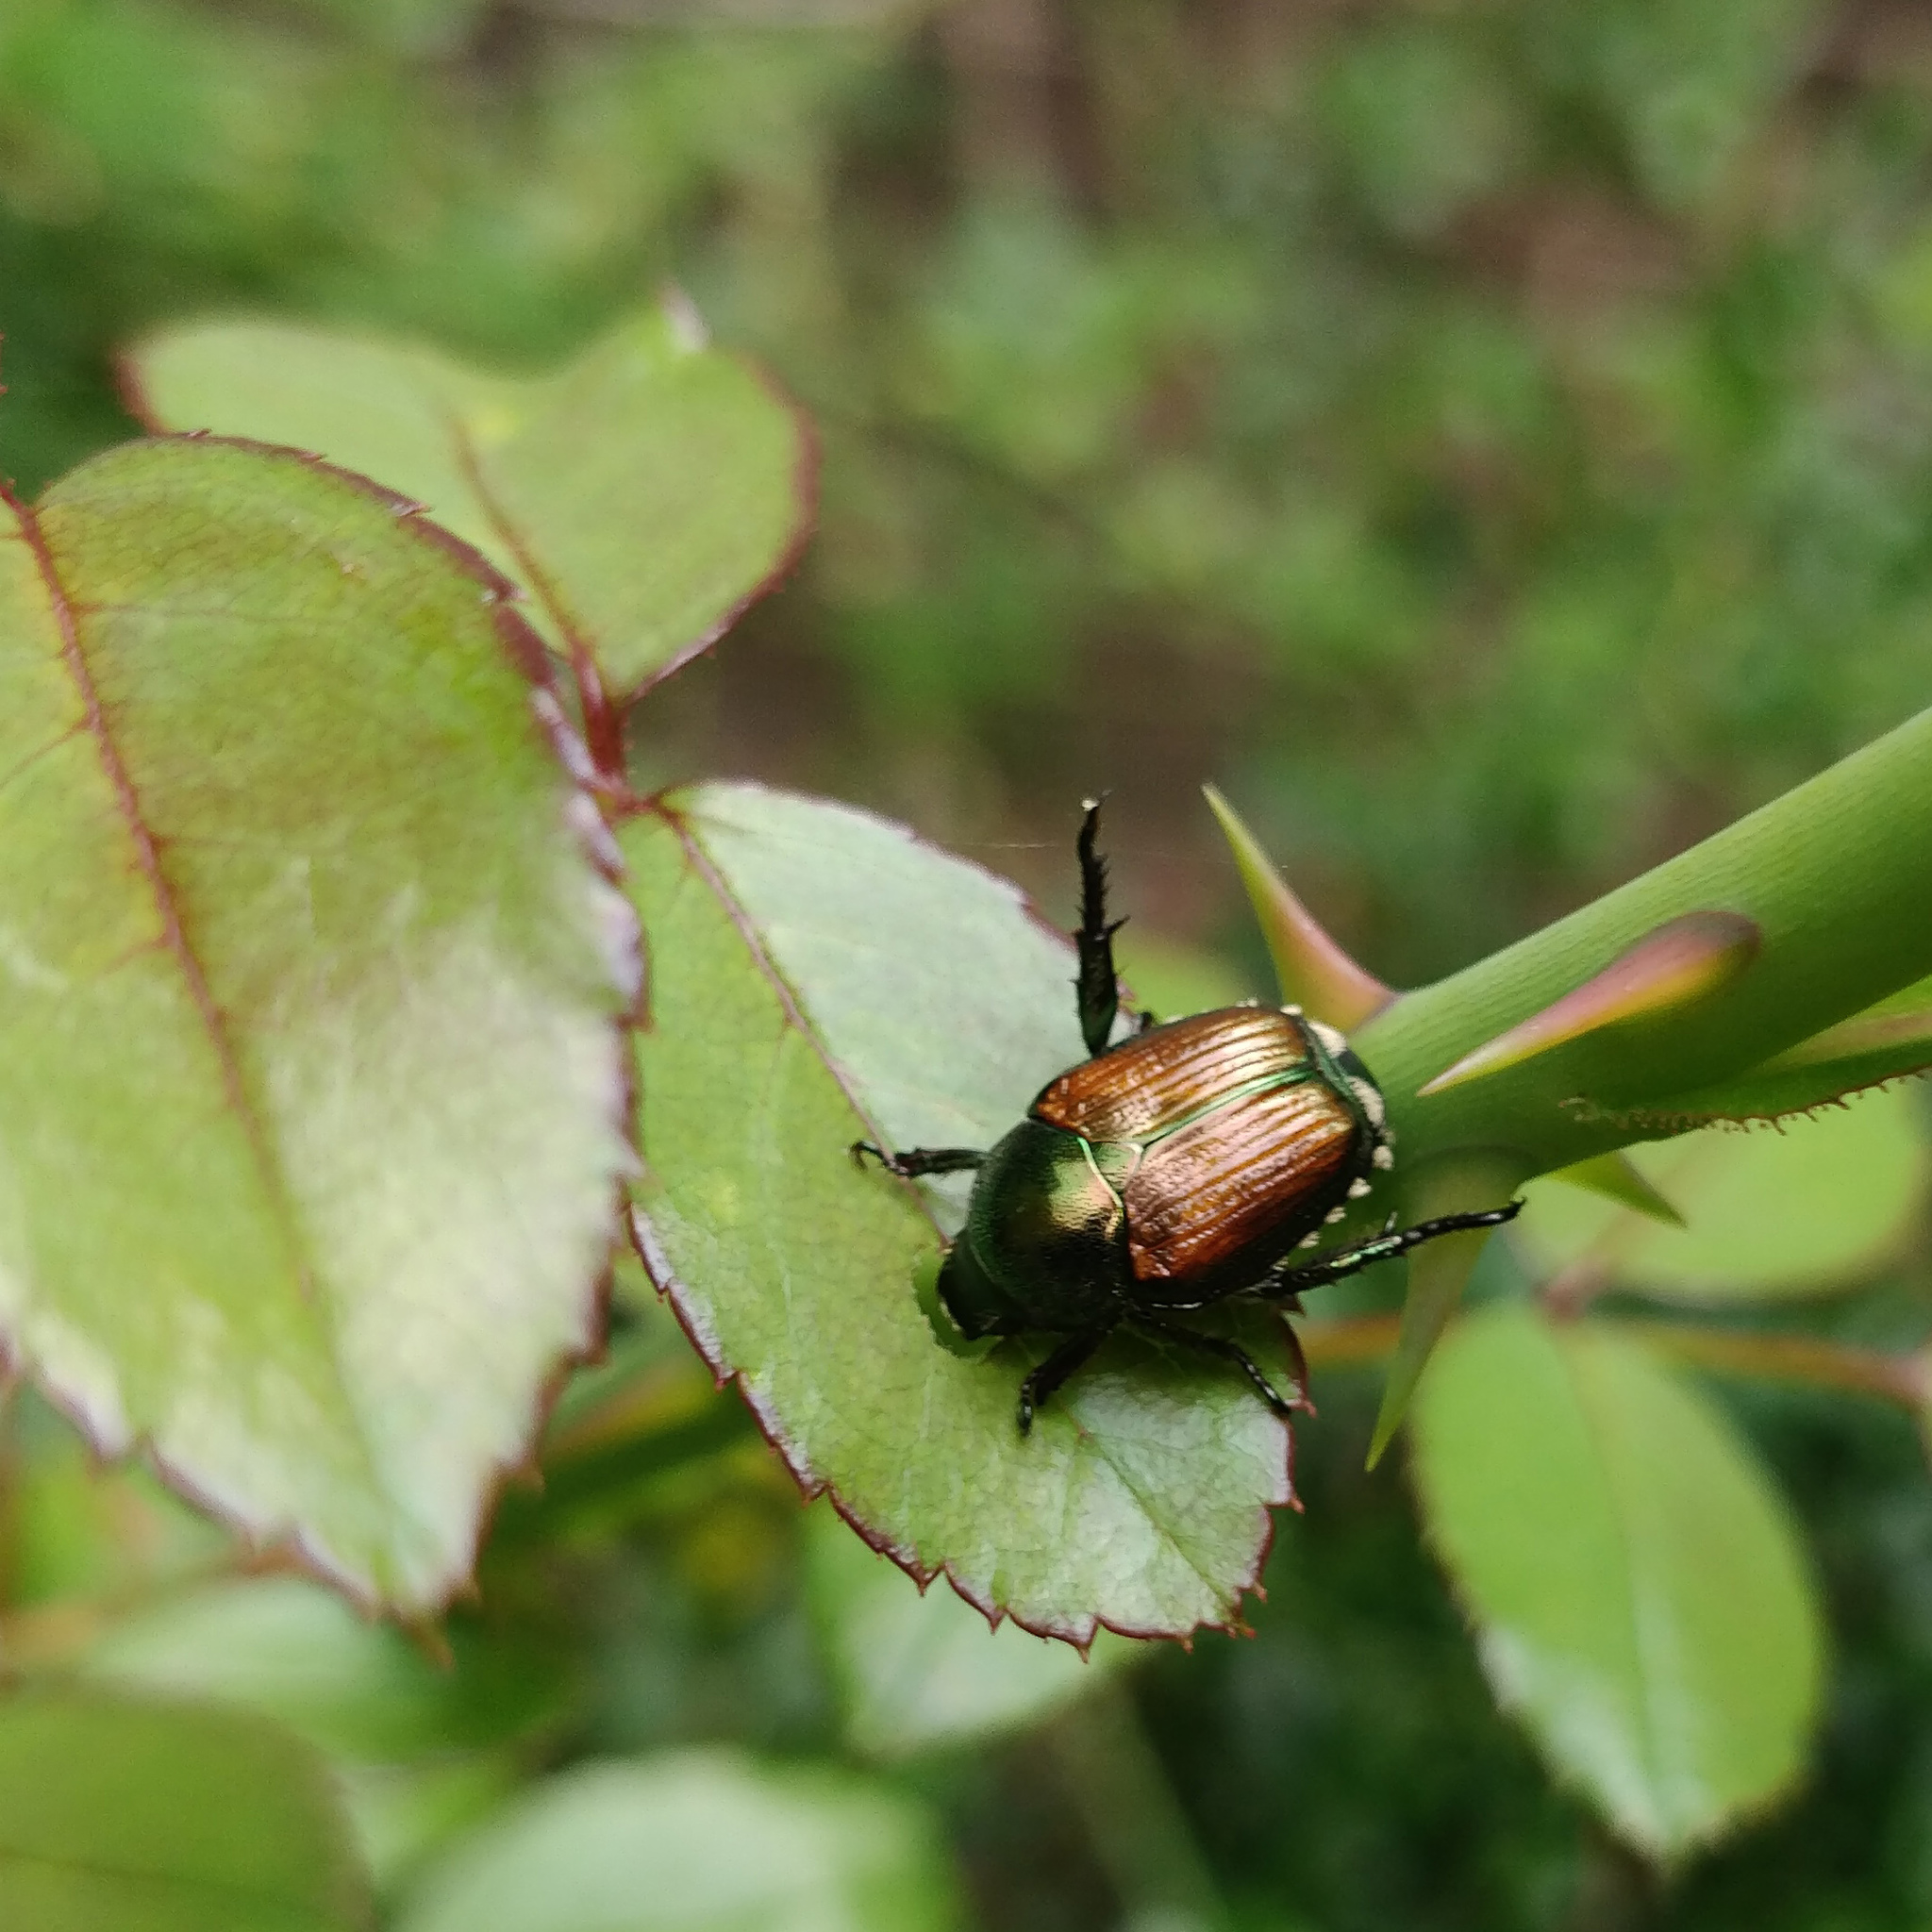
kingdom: Animalia
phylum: Arthropoda
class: Insecta
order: Coleoptera
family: Scarabaeidae
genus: Popillia
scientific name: Popillia japonica
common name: Japanese beetle
